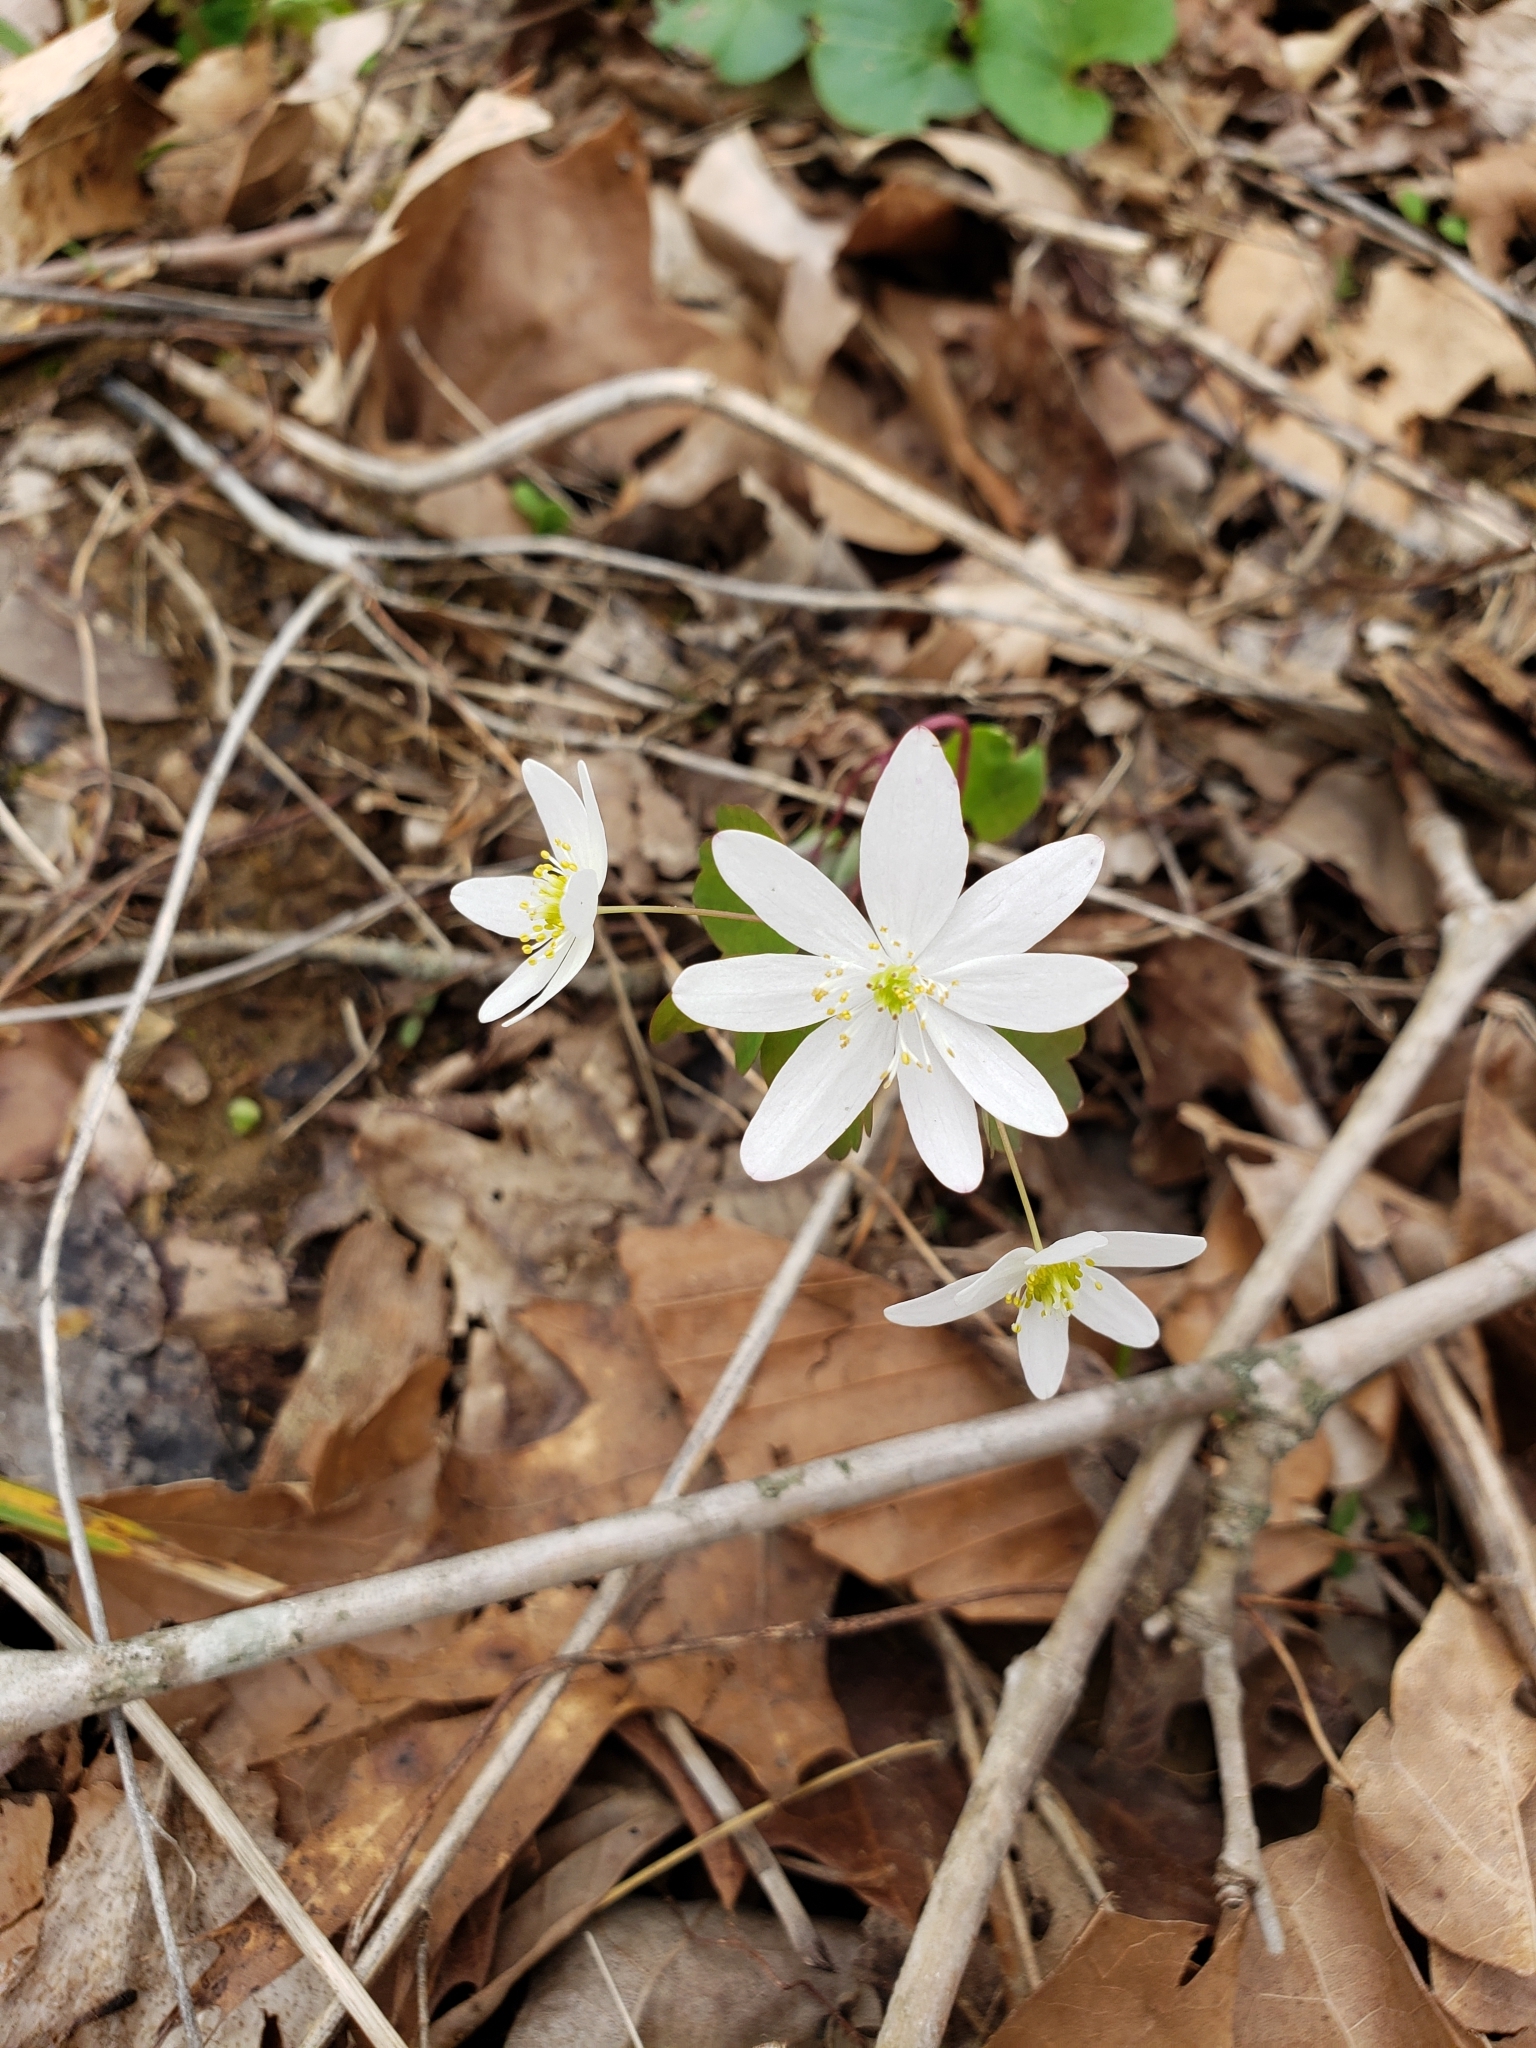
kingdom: Plantae
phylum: Tracheophyta
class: Magnoliopsida
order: Ranunculales
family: Ranunculaceae
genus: Thalictrum
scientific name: Thalictrum thalictroides
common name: Rue-anemone
